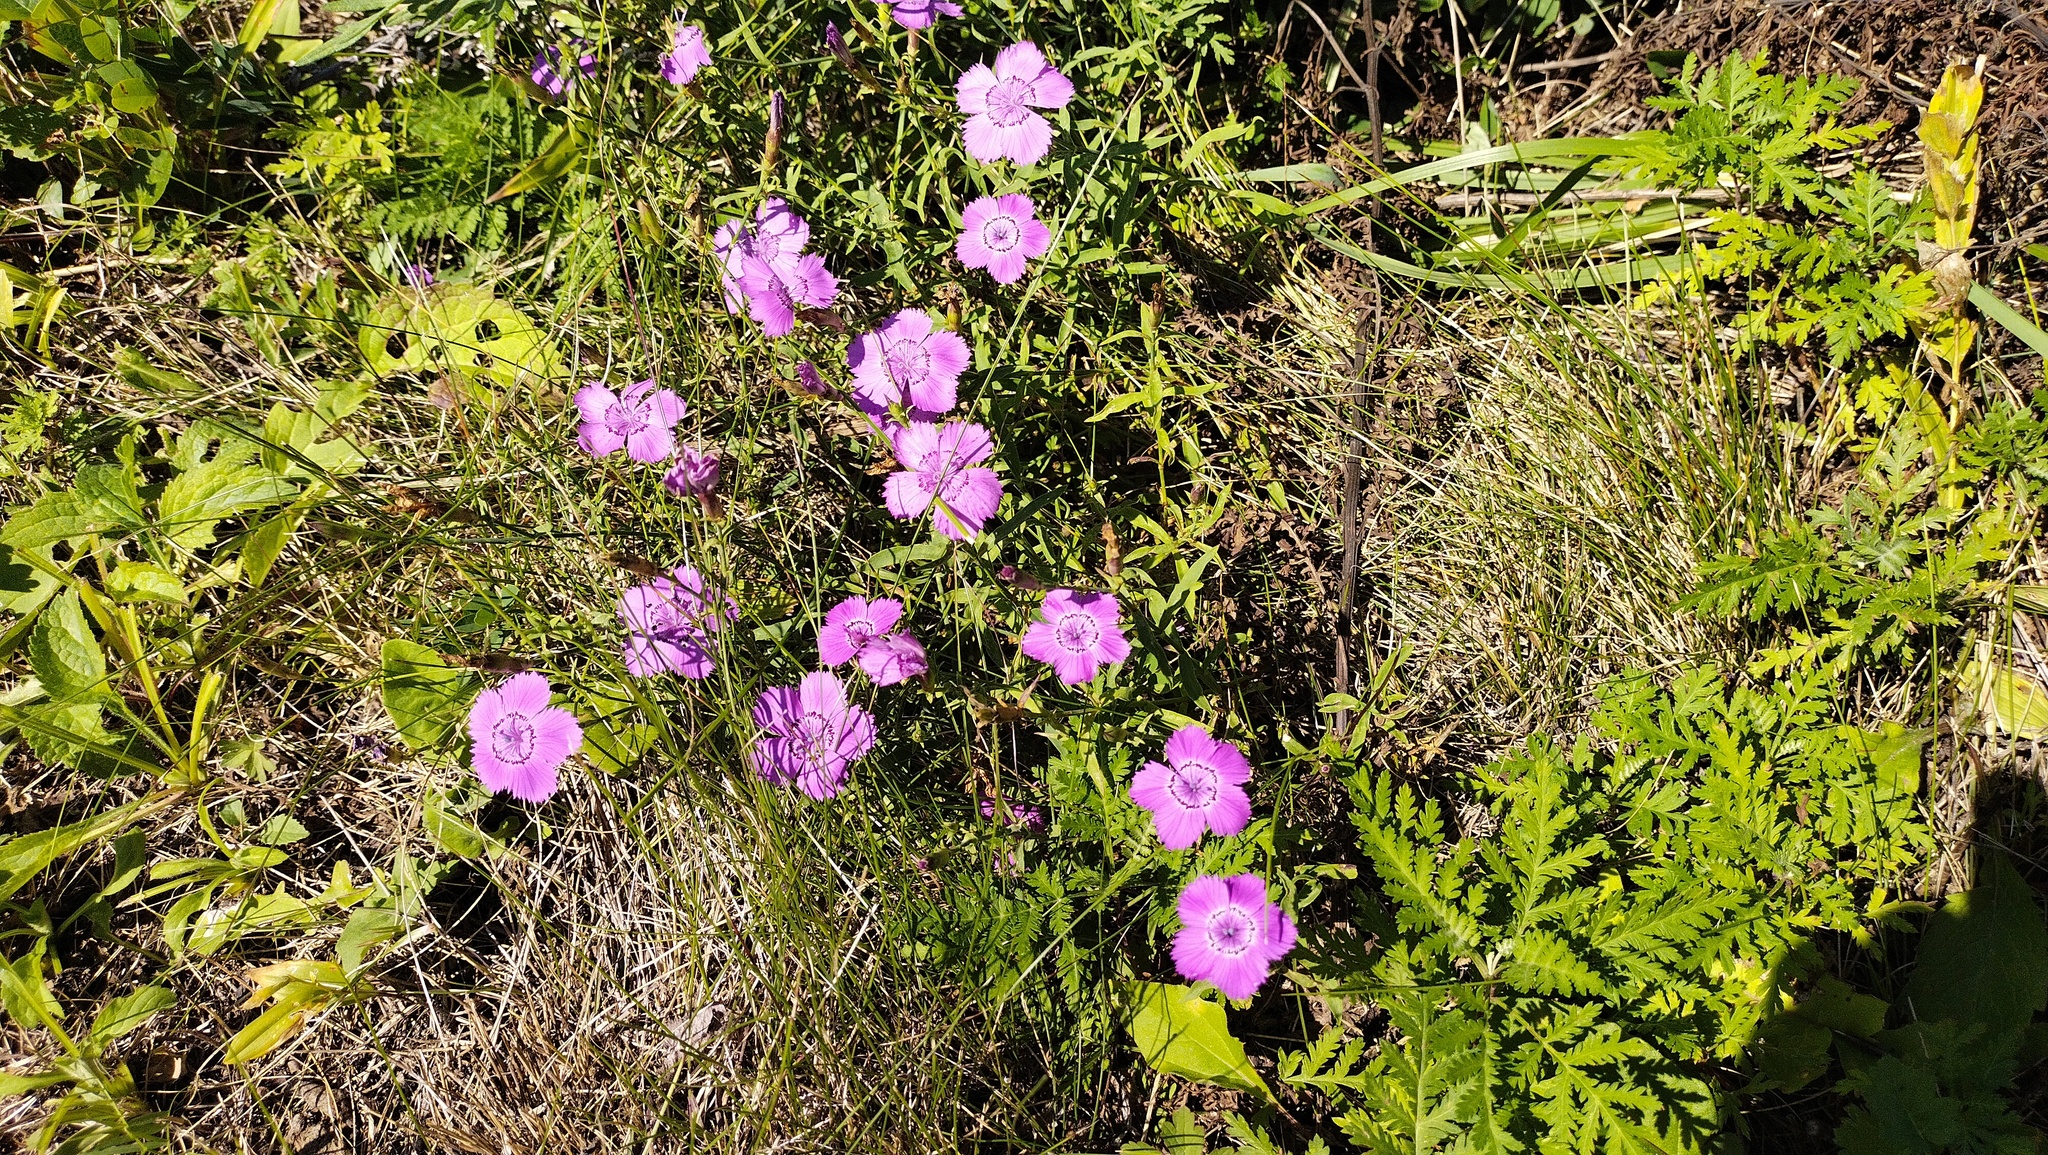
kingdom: Plantae
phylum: Tracheophyta
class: Magnoliopsida
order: Caryophyllales
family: Caryophyllaceae
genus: Dianthus
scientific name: Dianthus chinensis
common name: Rainbow pink
